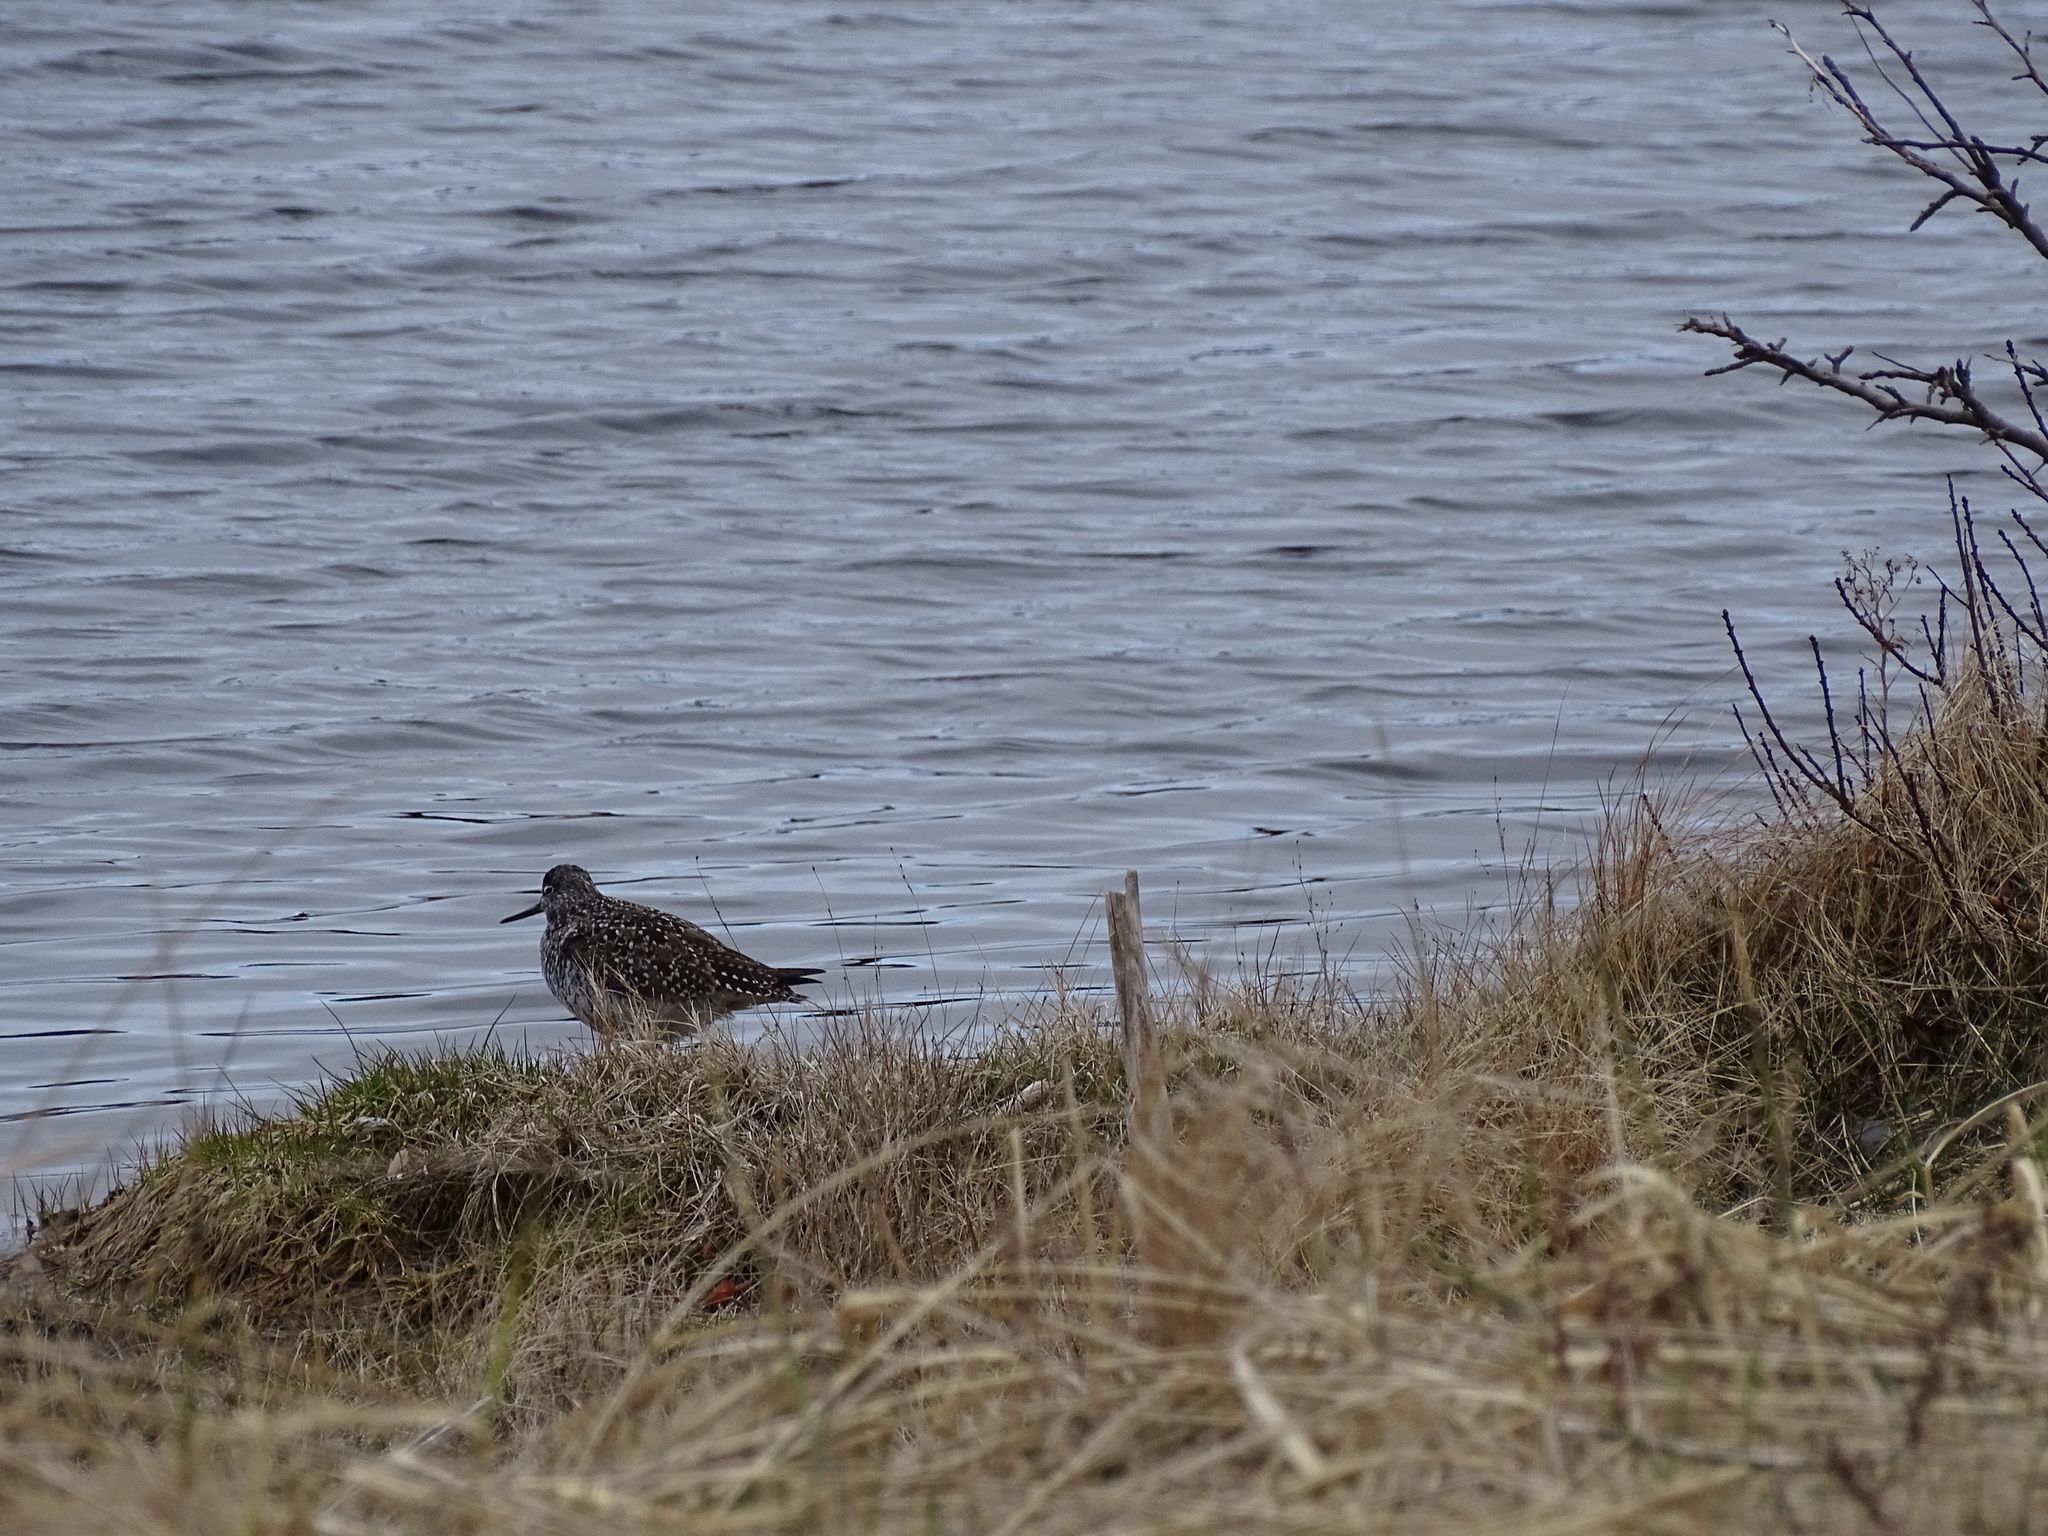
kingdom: Animalia
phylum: Chordata
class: Aves
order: Charadriiformes
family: Scolopacidae
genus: Tringa
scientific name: Tringa melanoleuca
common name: Greater yellowlegs
